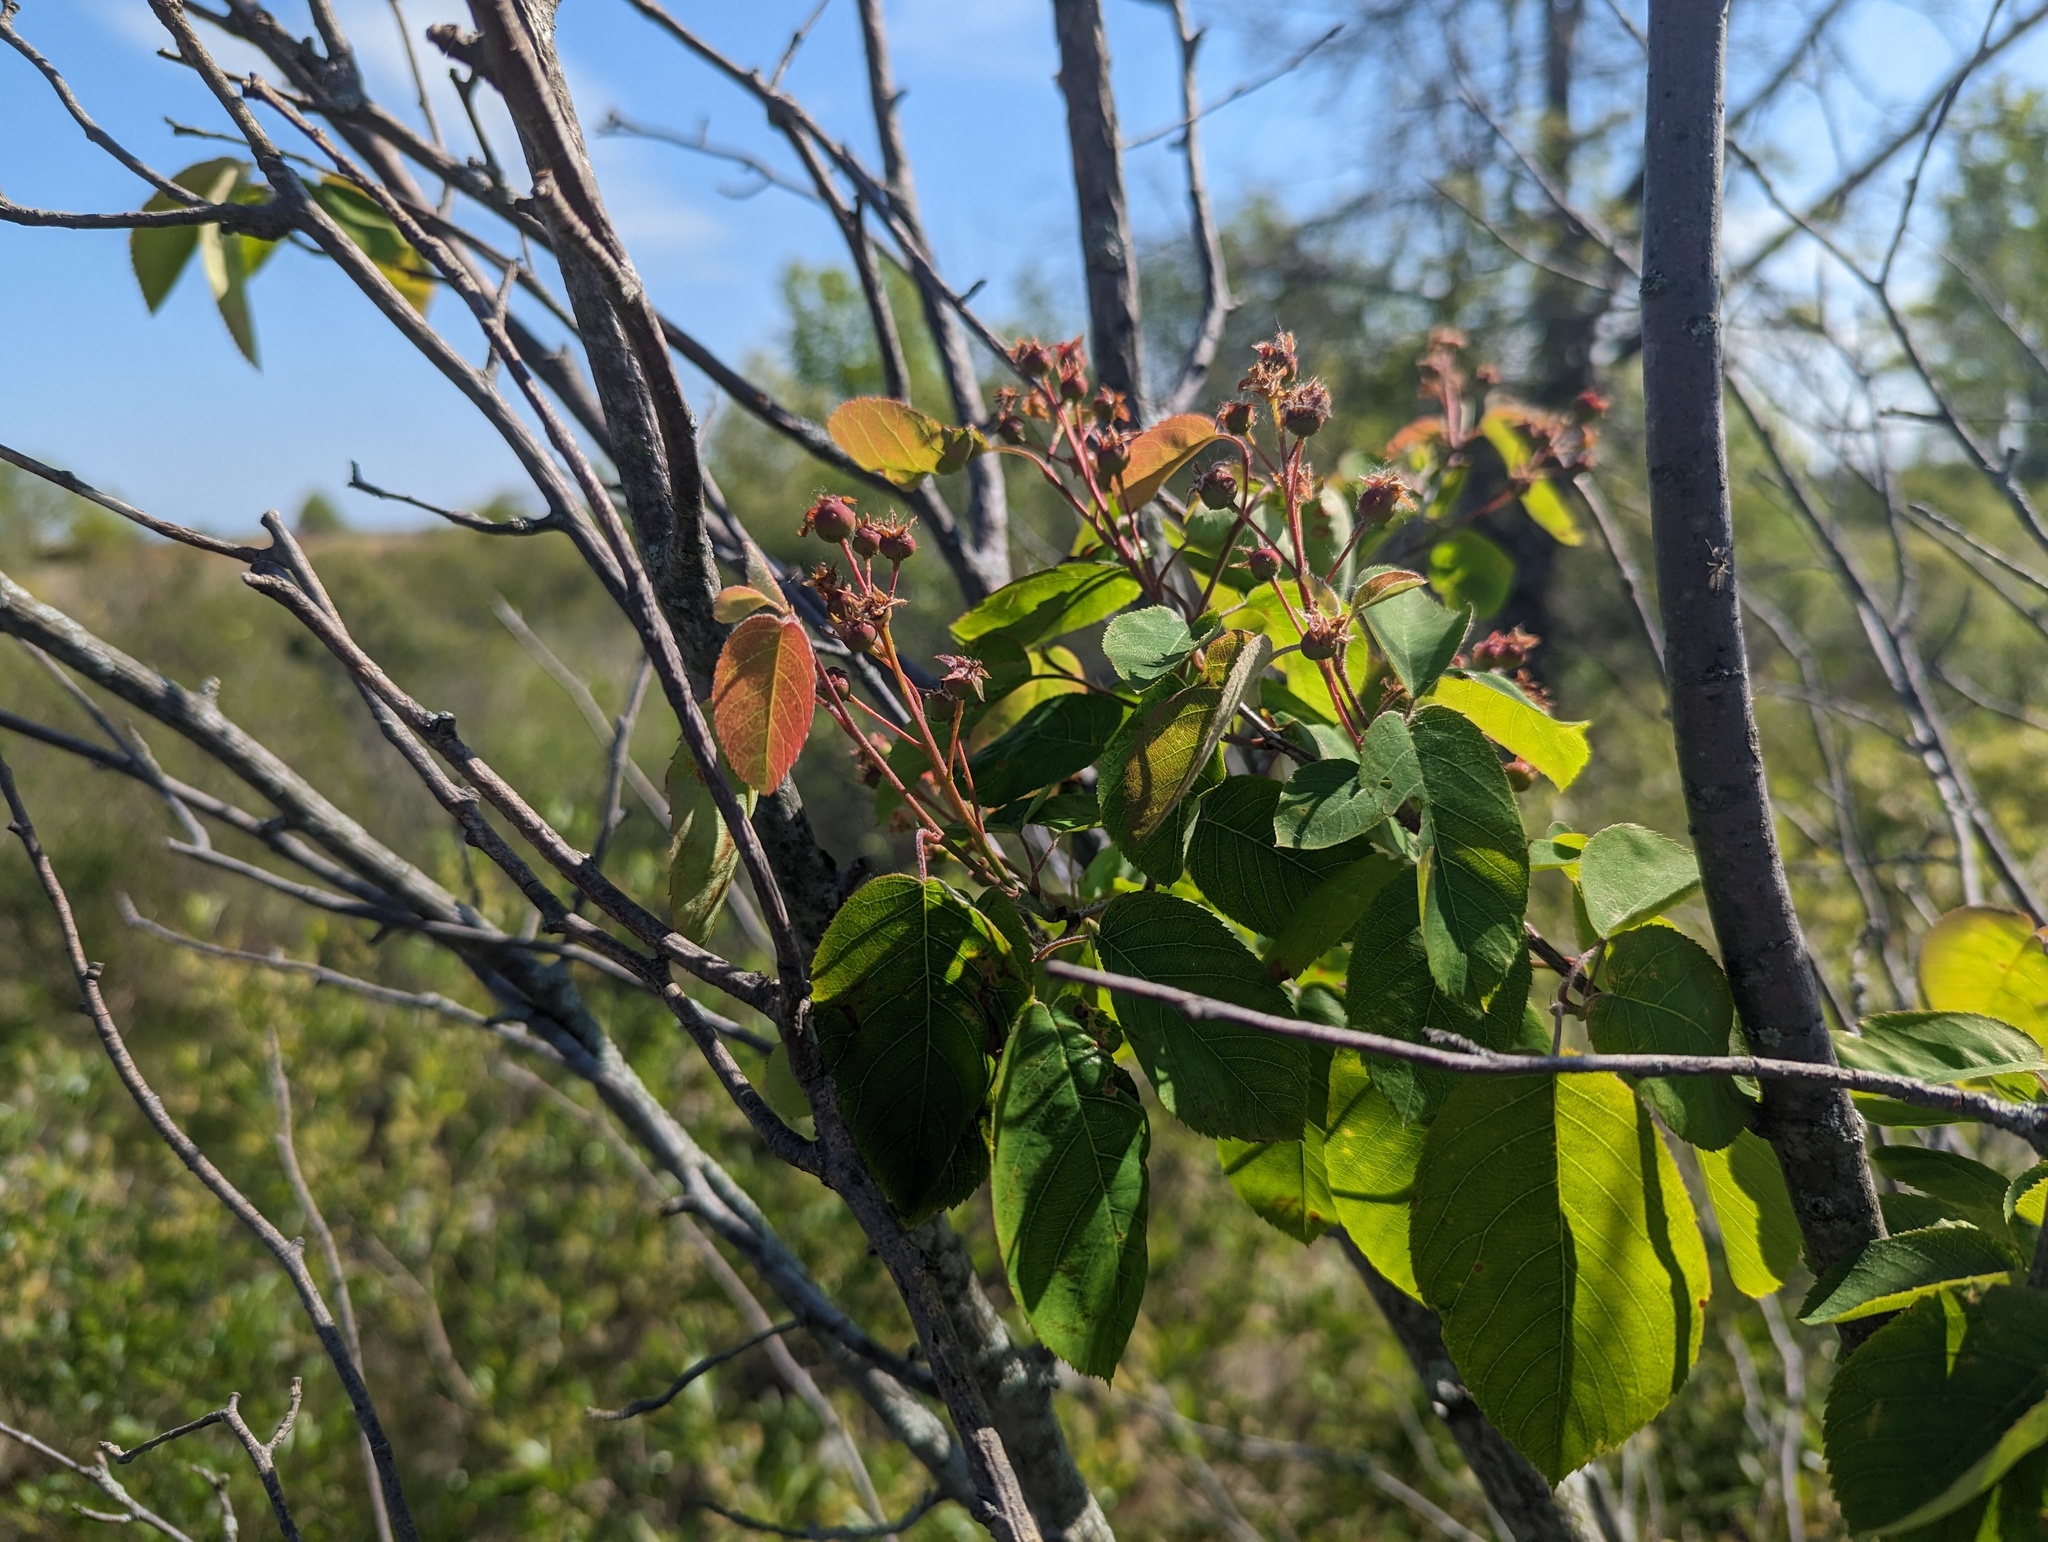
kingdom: Plantae
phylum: Tracheophyta
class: Magnoliopsida
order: Rosales
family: Rosaceae
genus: Amelanchier
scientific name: Amelanchier interior
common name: Inland serviceberry
